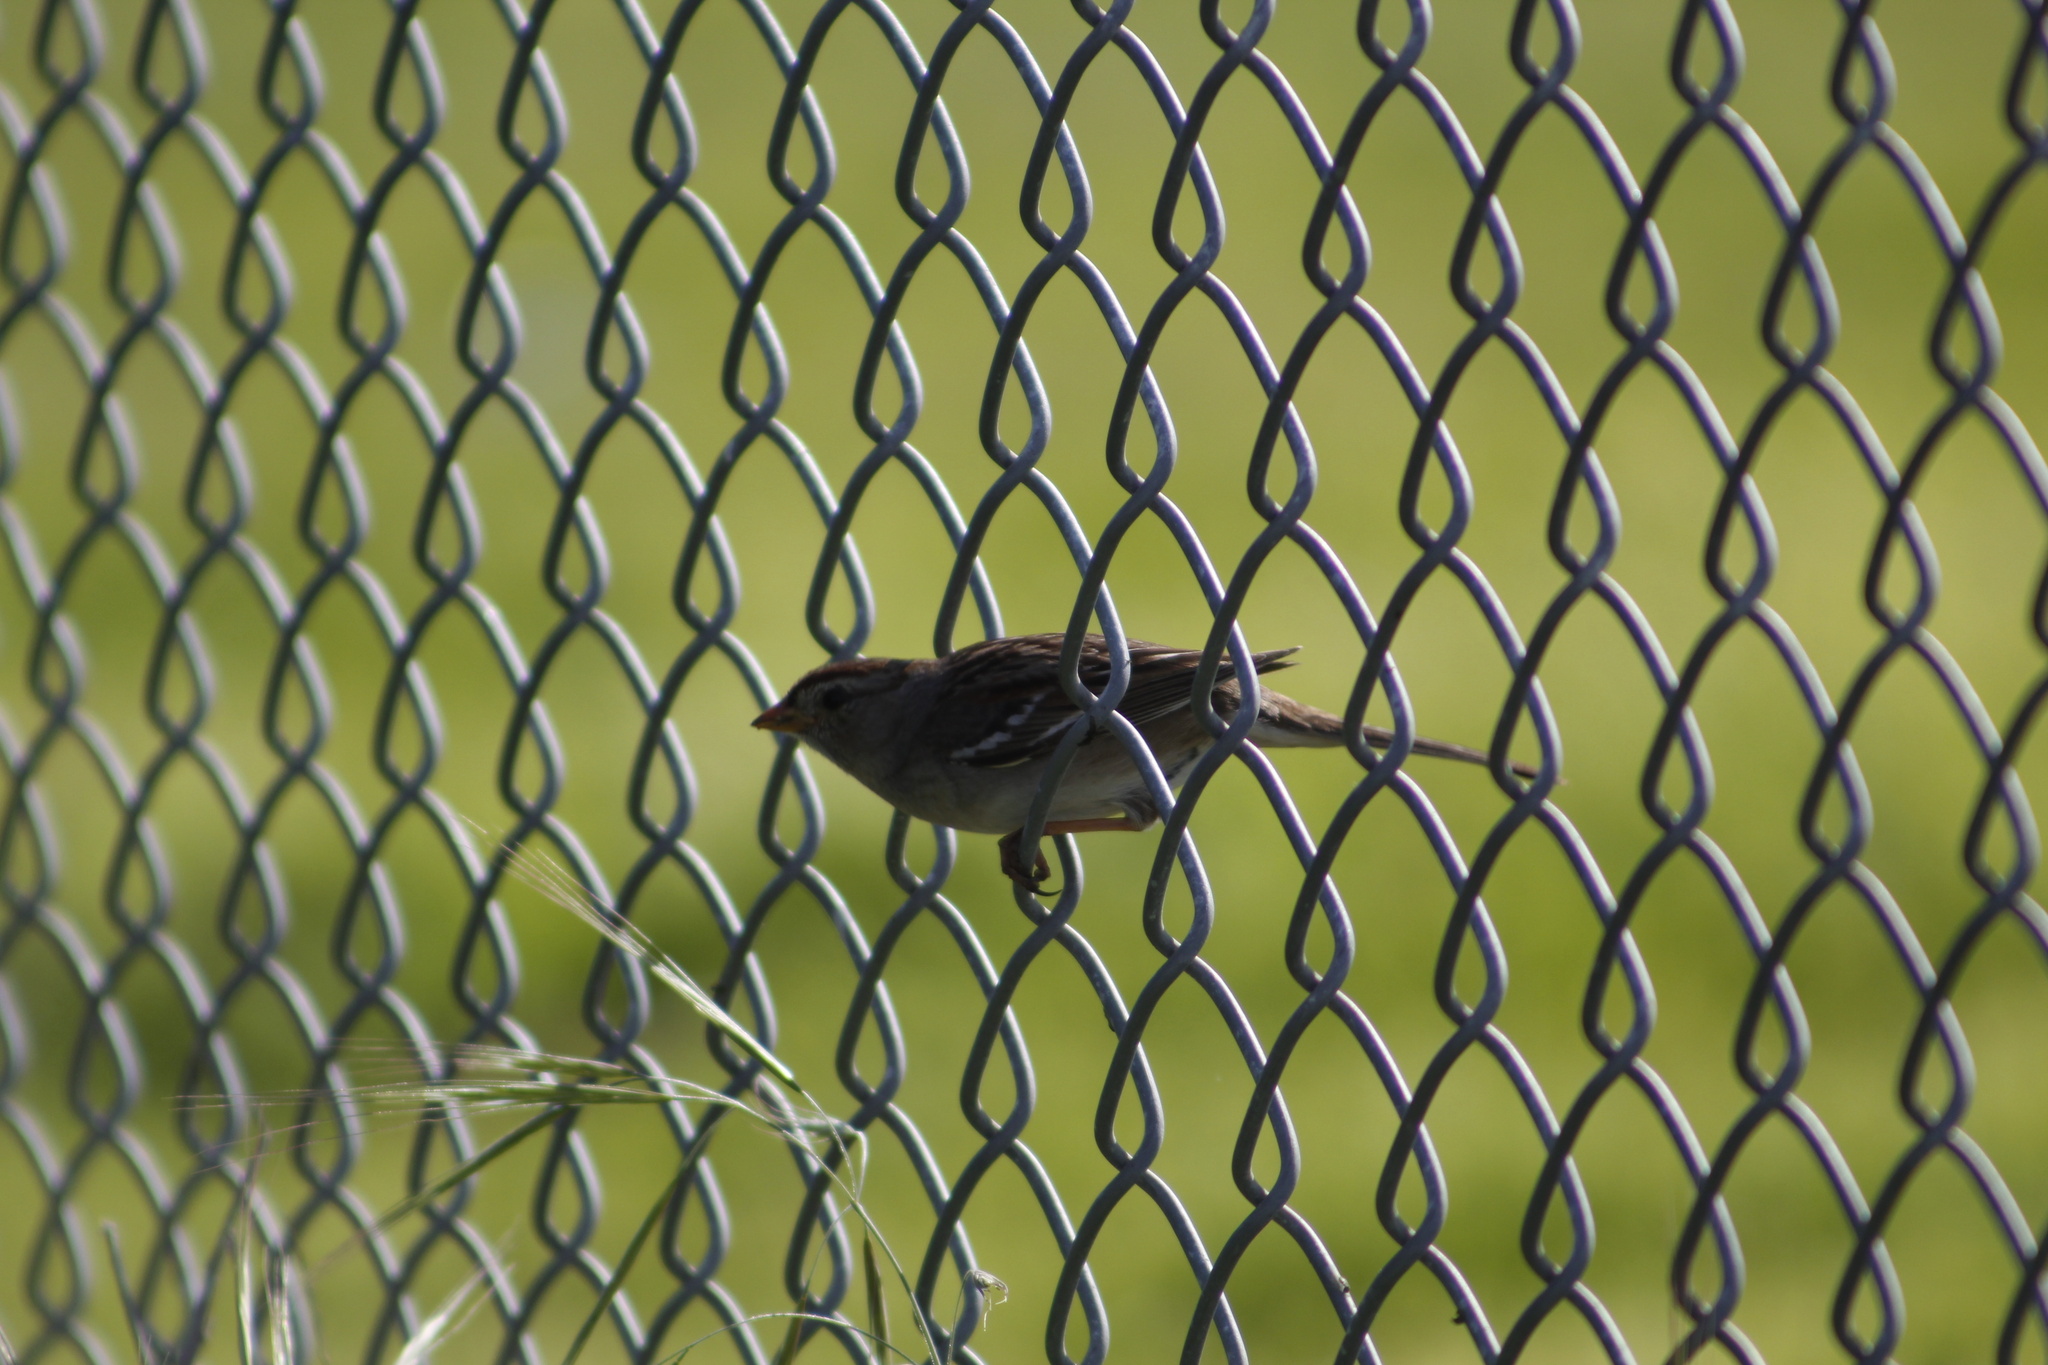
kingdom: Animalia
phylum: Chordata
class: Aves
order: Passeriformes
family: Passerellidae
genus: Spizella
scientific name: Spizella passerina
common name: Chipping sparrow
